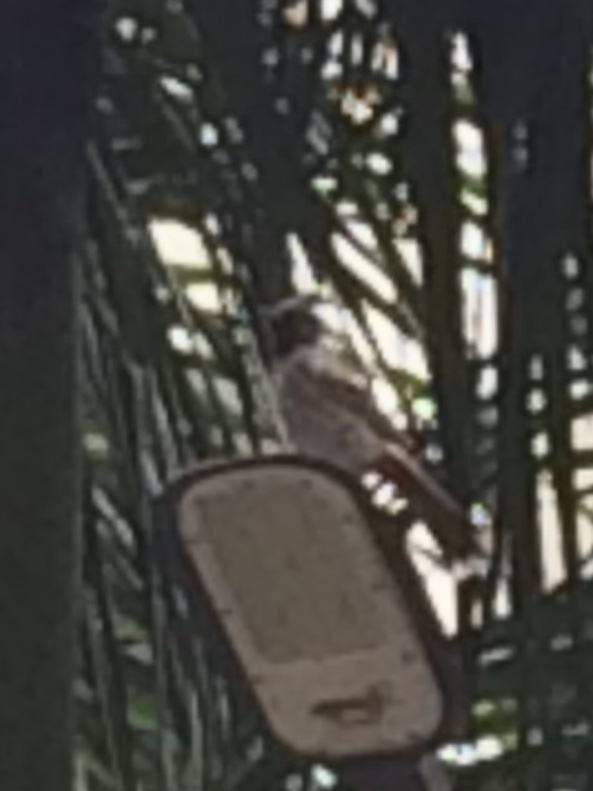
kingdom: Animalia
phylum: Chordata
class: Aves
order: Passeriformes
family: Pycnonotidae
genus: Pycnonotus
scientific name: Pycnonotus cafer
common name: Red-vented bulbul
